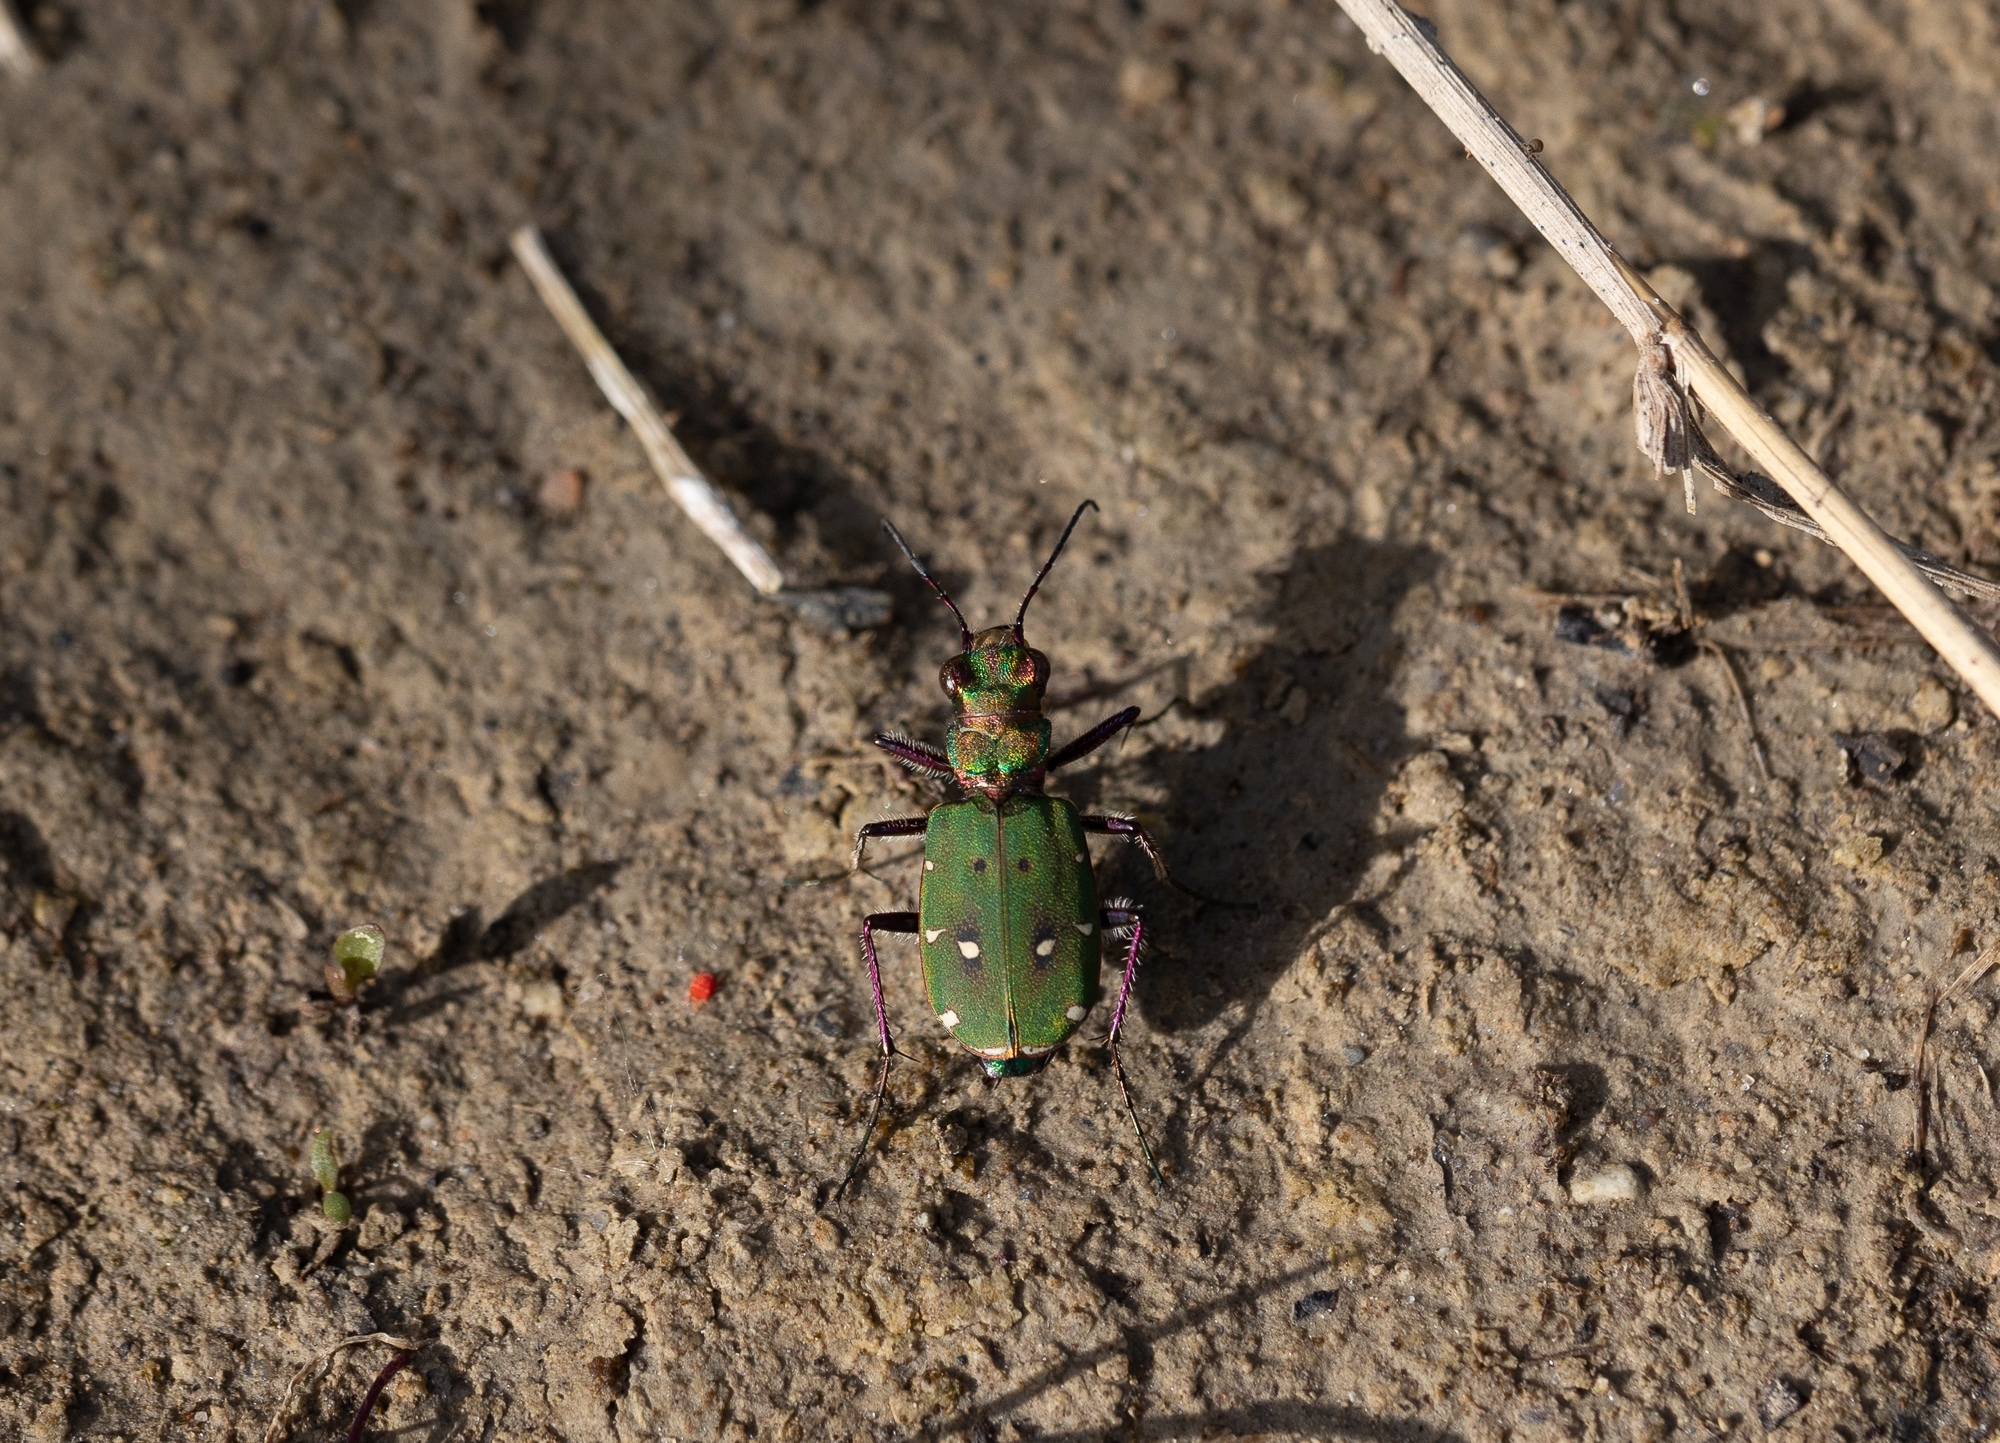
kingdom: Animalia
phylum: Arthropoda
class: Insecta
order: Coleoptera
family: Carabidae
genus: Cicindela
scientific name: Cicindela campestris
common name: Common tiger beetle
